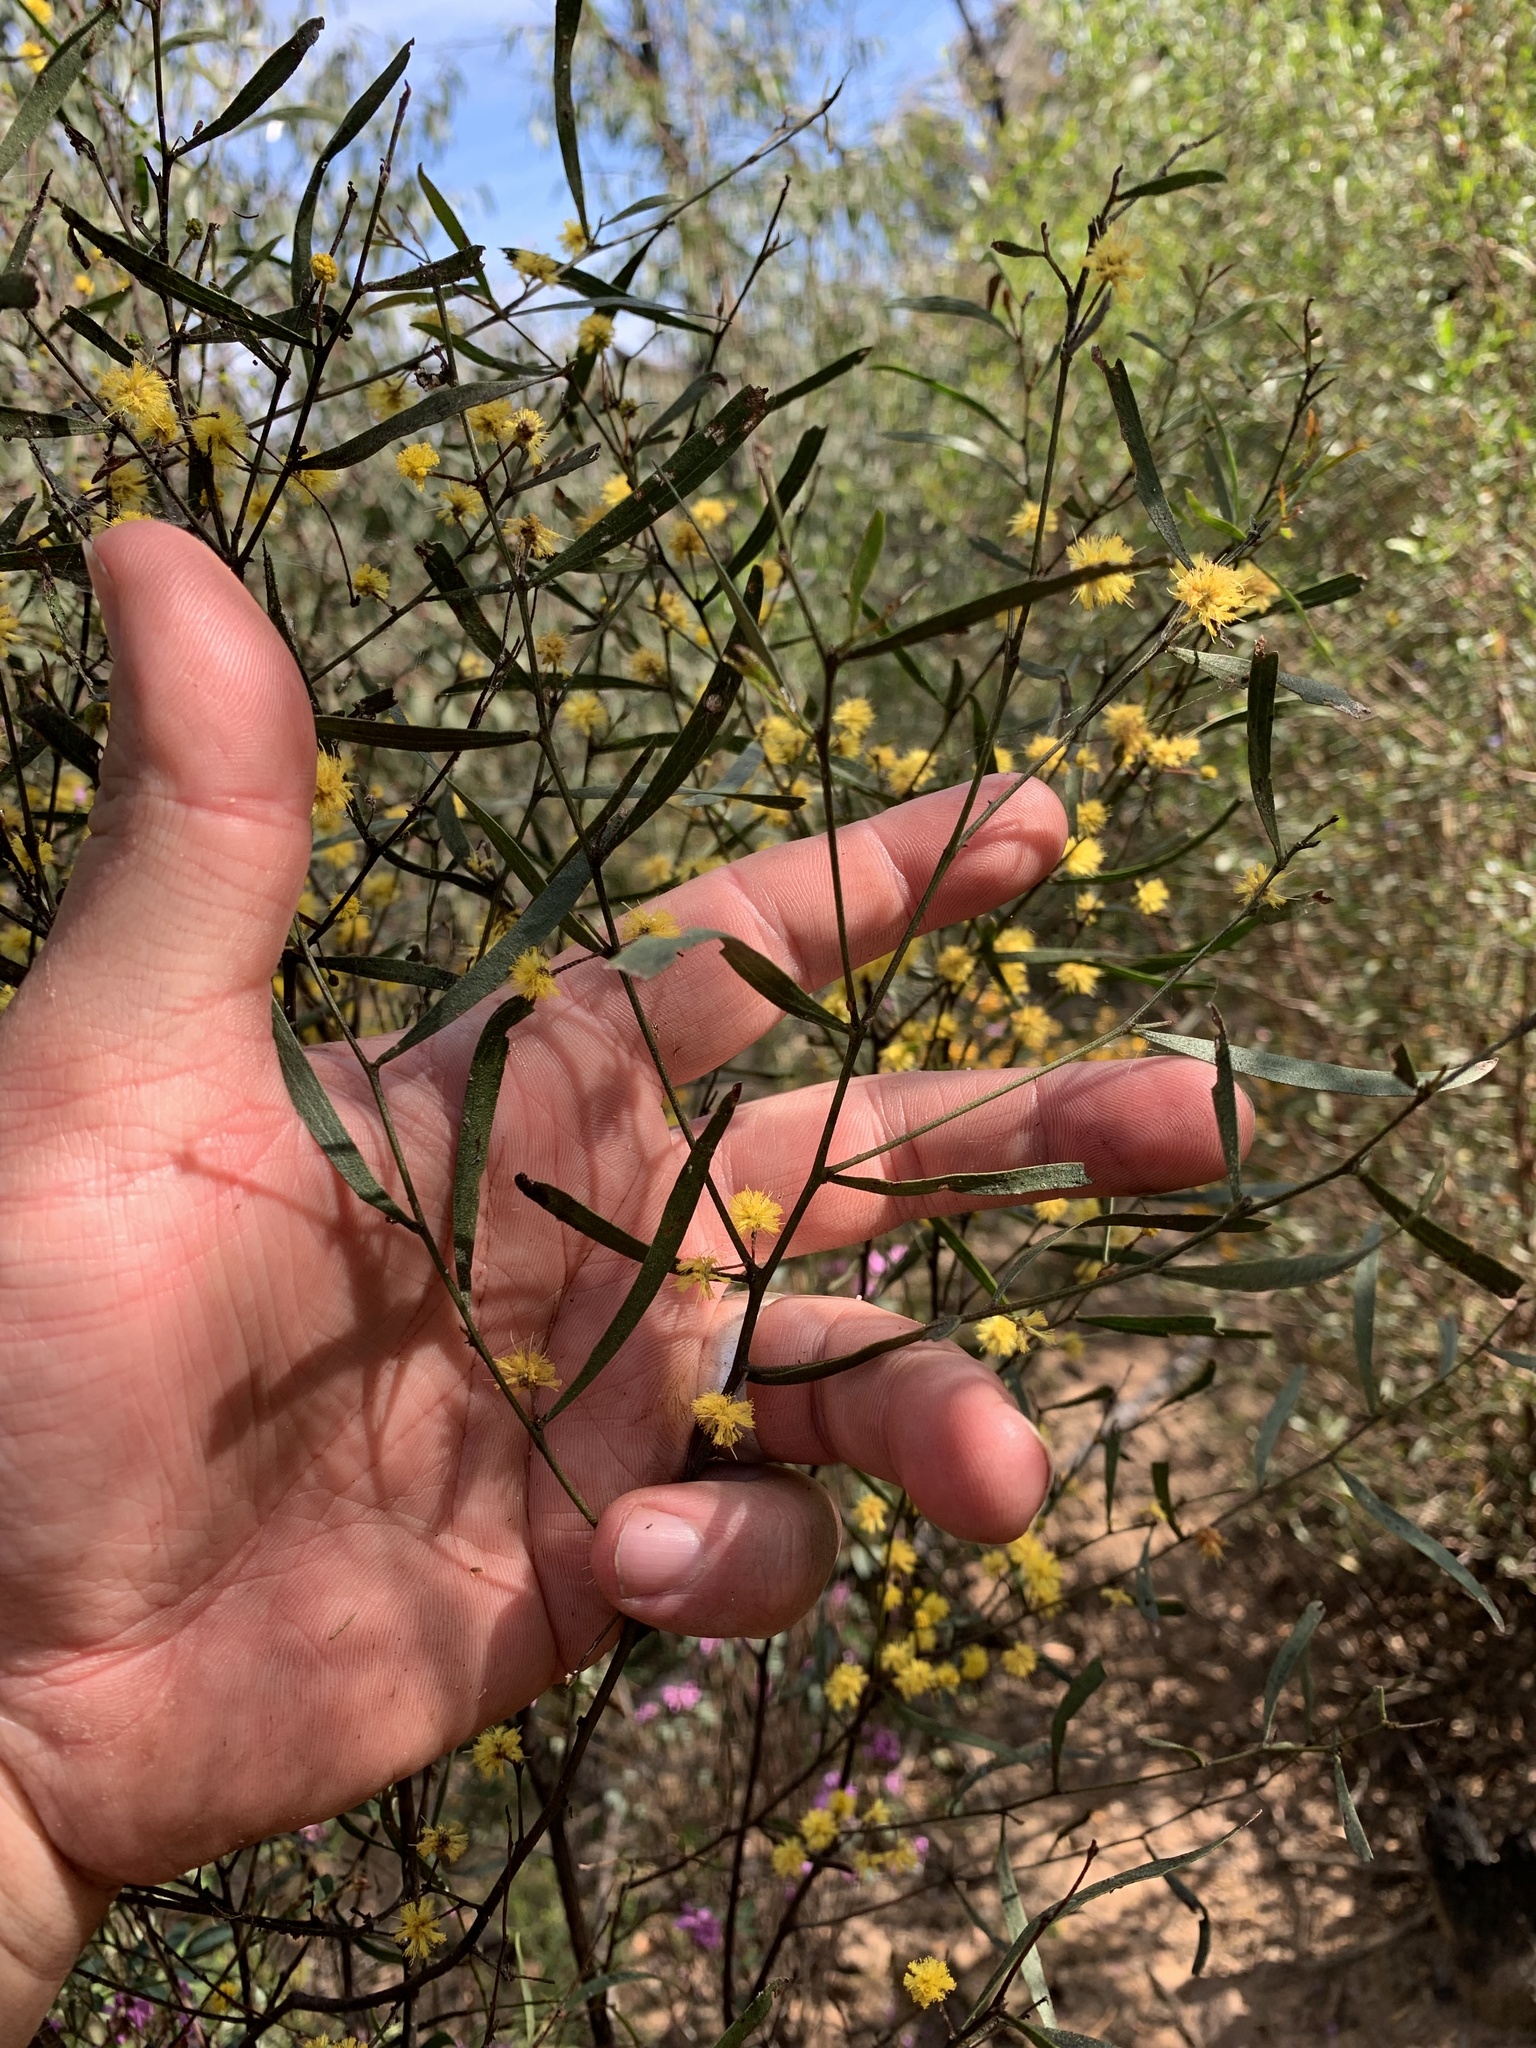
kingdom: Plantae
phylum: Tracheophyta
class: Magnoliopsida
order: Fabales
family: Fabaceae
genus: Acacia
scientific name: Acacia verniciflua
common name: Varnish wattle
